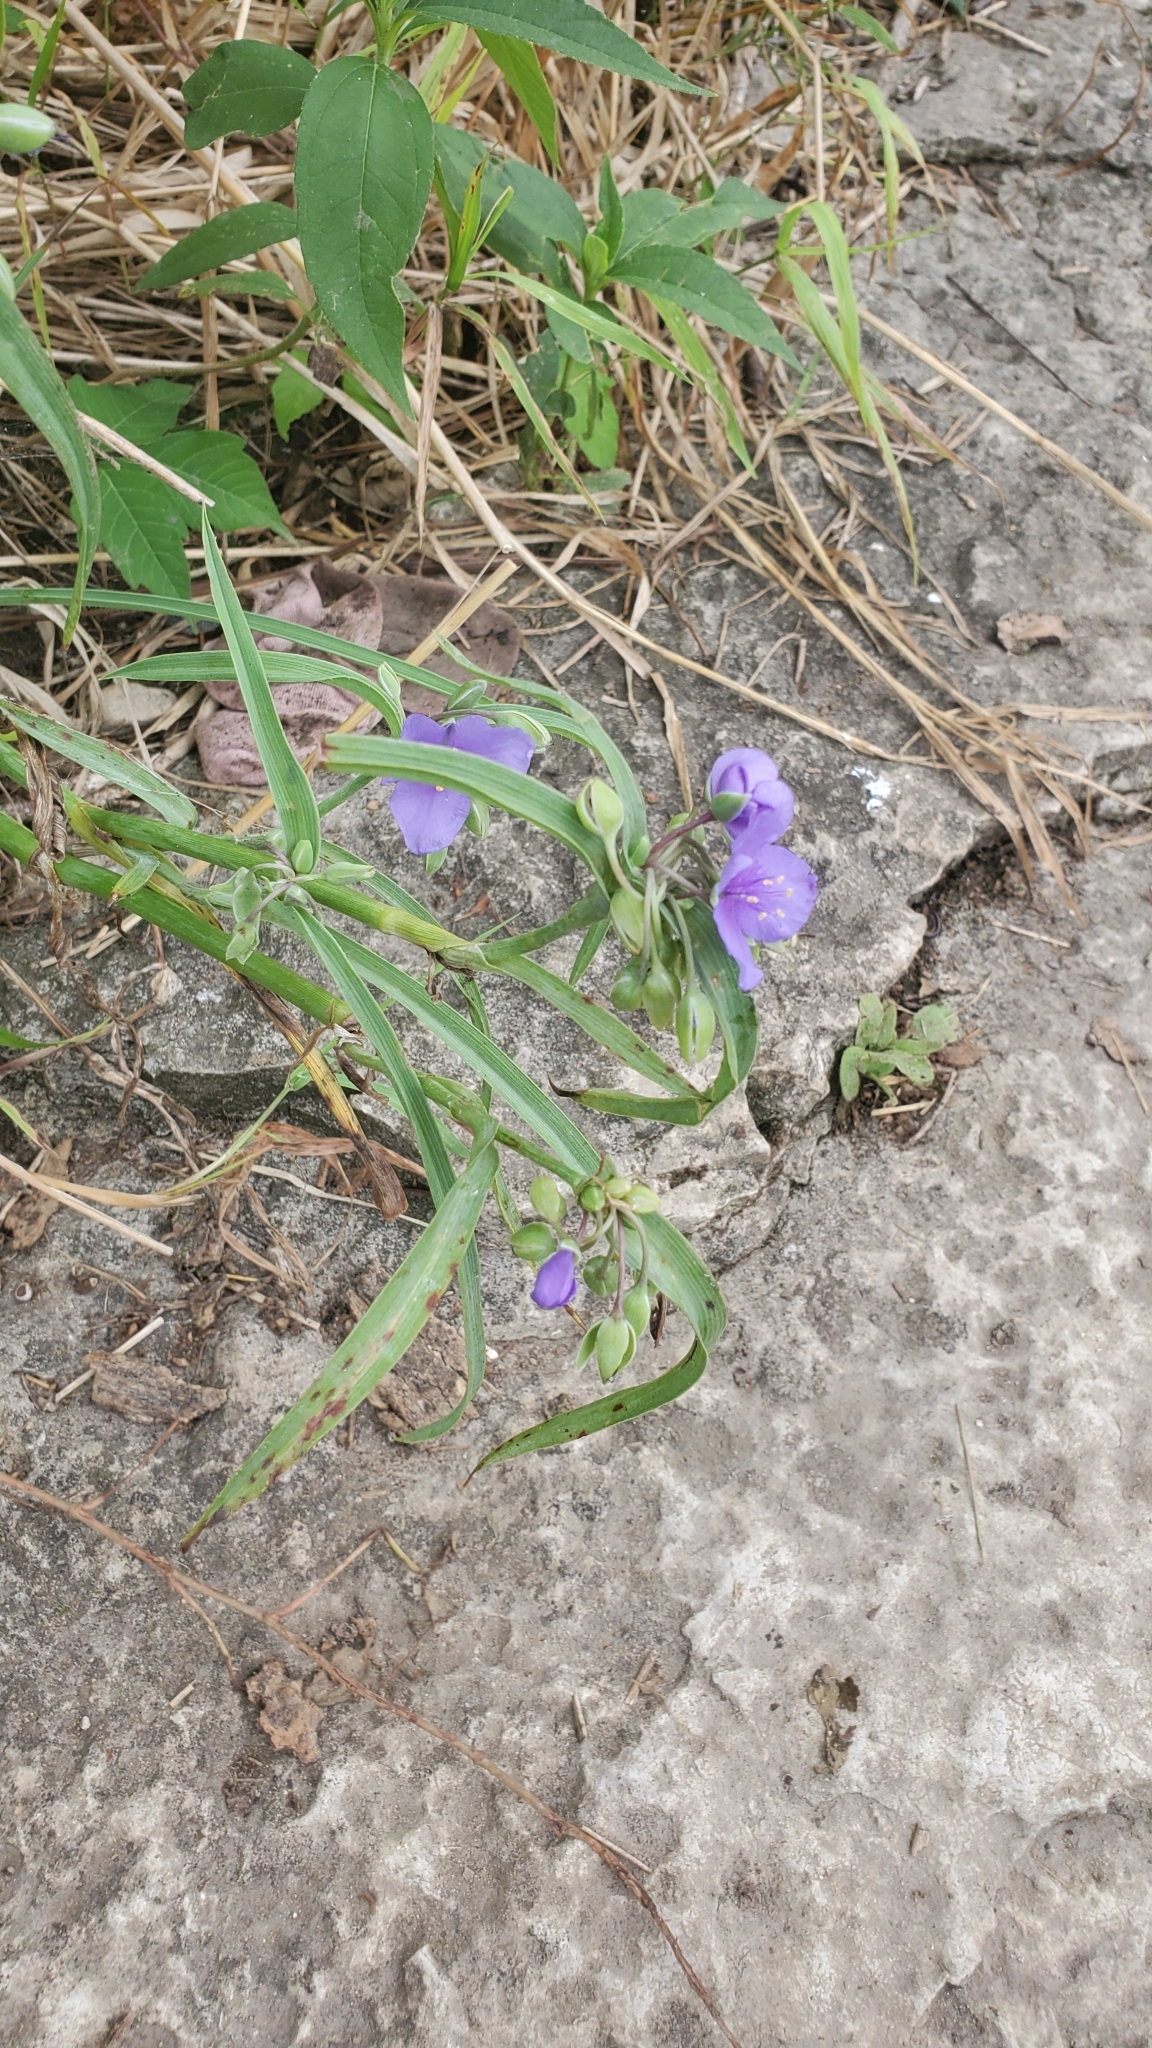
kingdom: Plantae
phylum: Tracheophyta
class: Liliopsida
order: Commelinales
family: Commelinaceae
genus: Tradescantia
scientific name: Tradescantia ohiensis
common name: Ohio spiderwort
